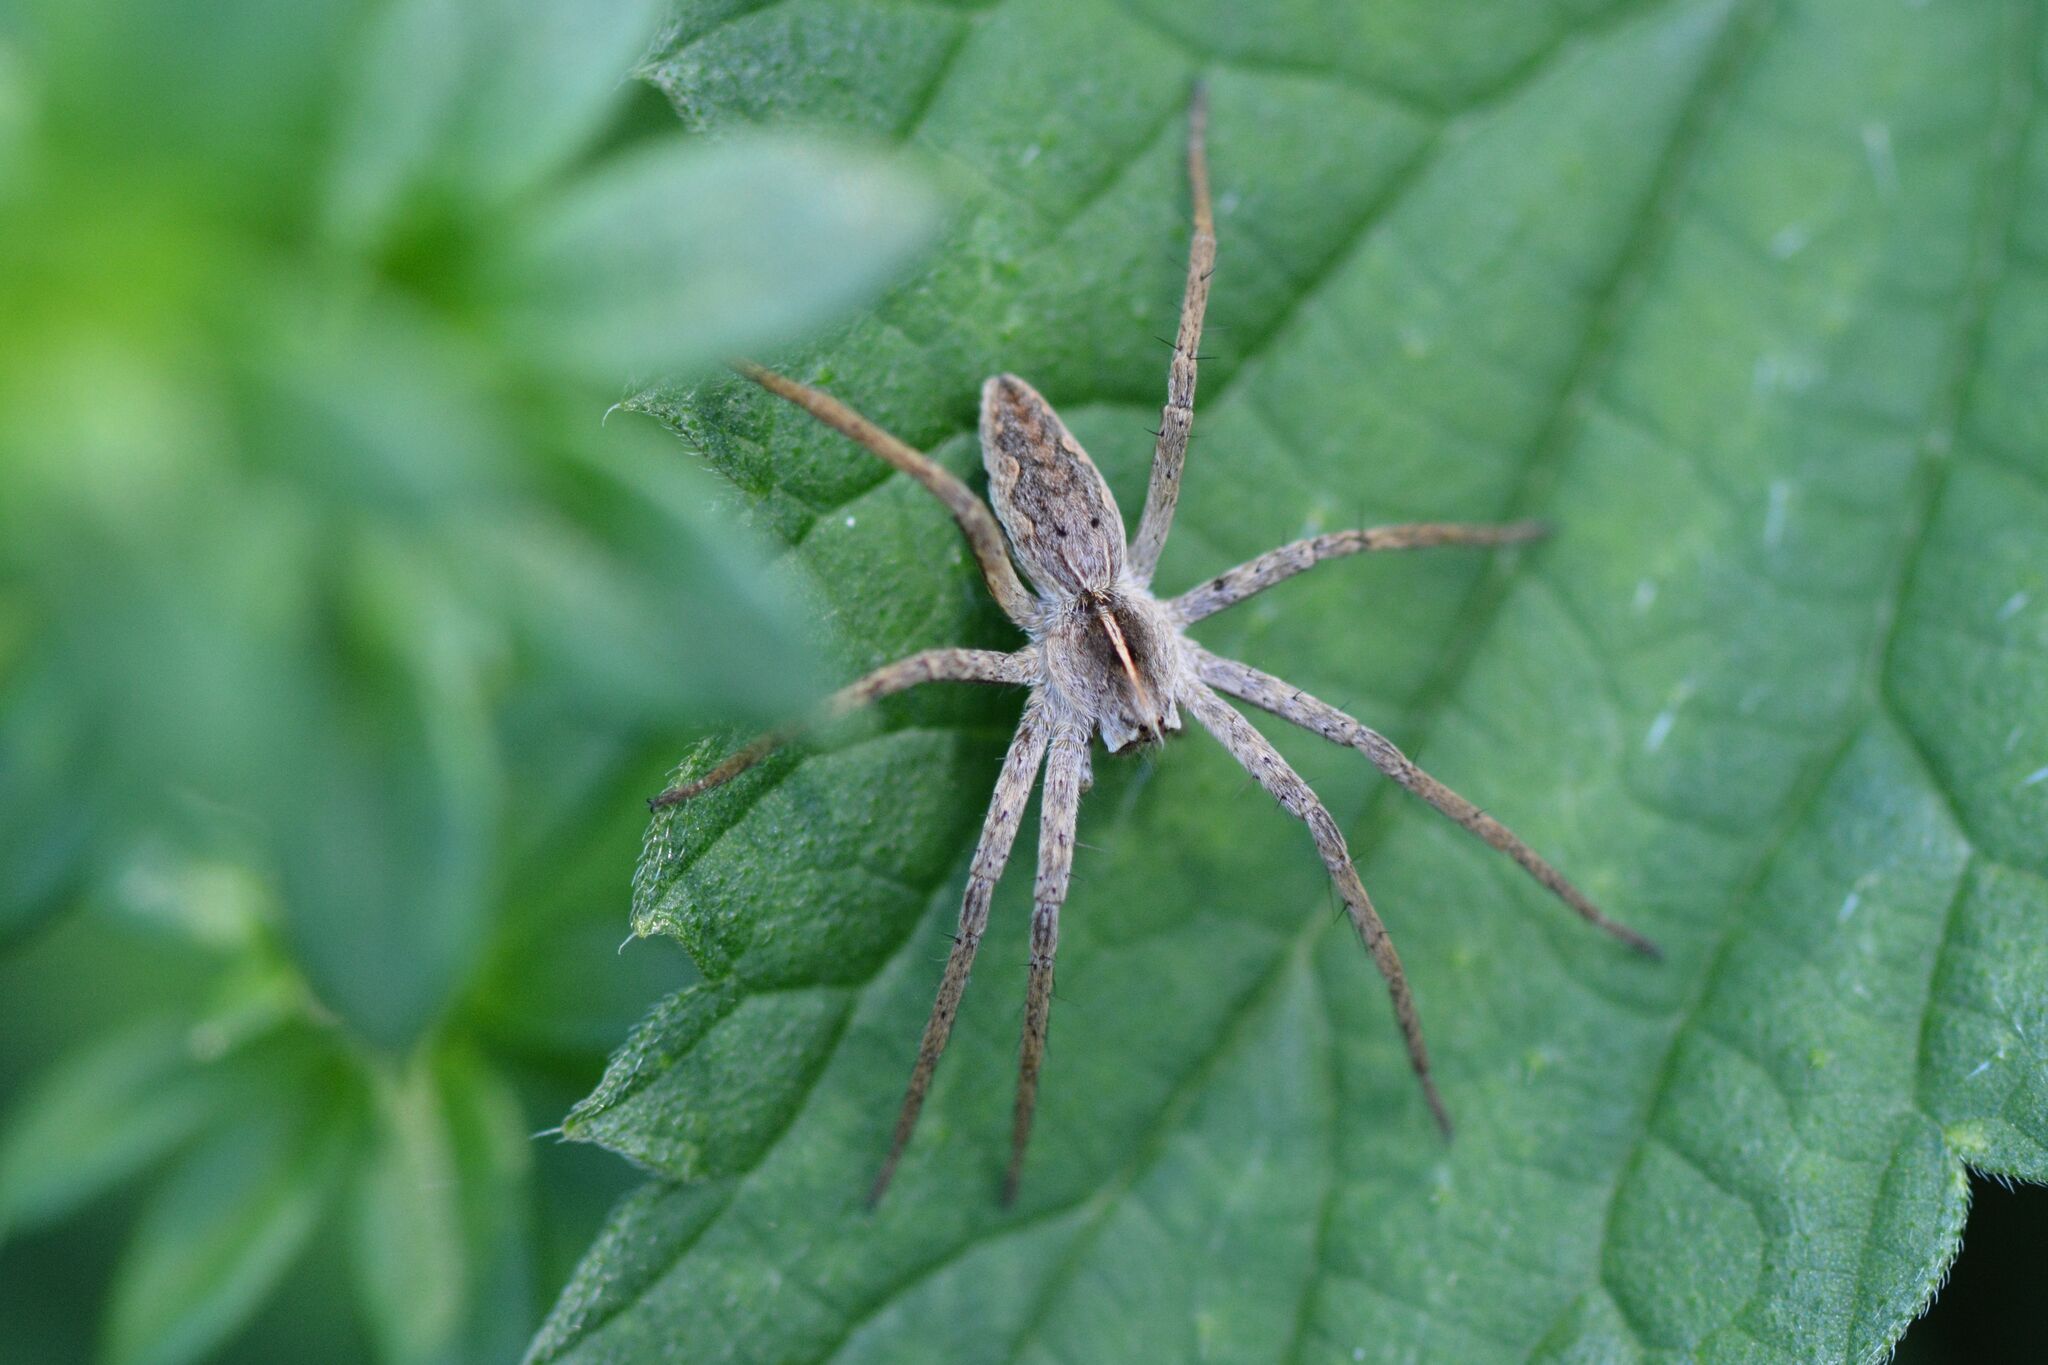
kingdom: Animalia
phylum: Arthropoda
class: Arachnida
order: Araneae
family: Pisauridae
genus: Pisaura
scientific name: Pisaura mirabilis
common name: Tent spider
